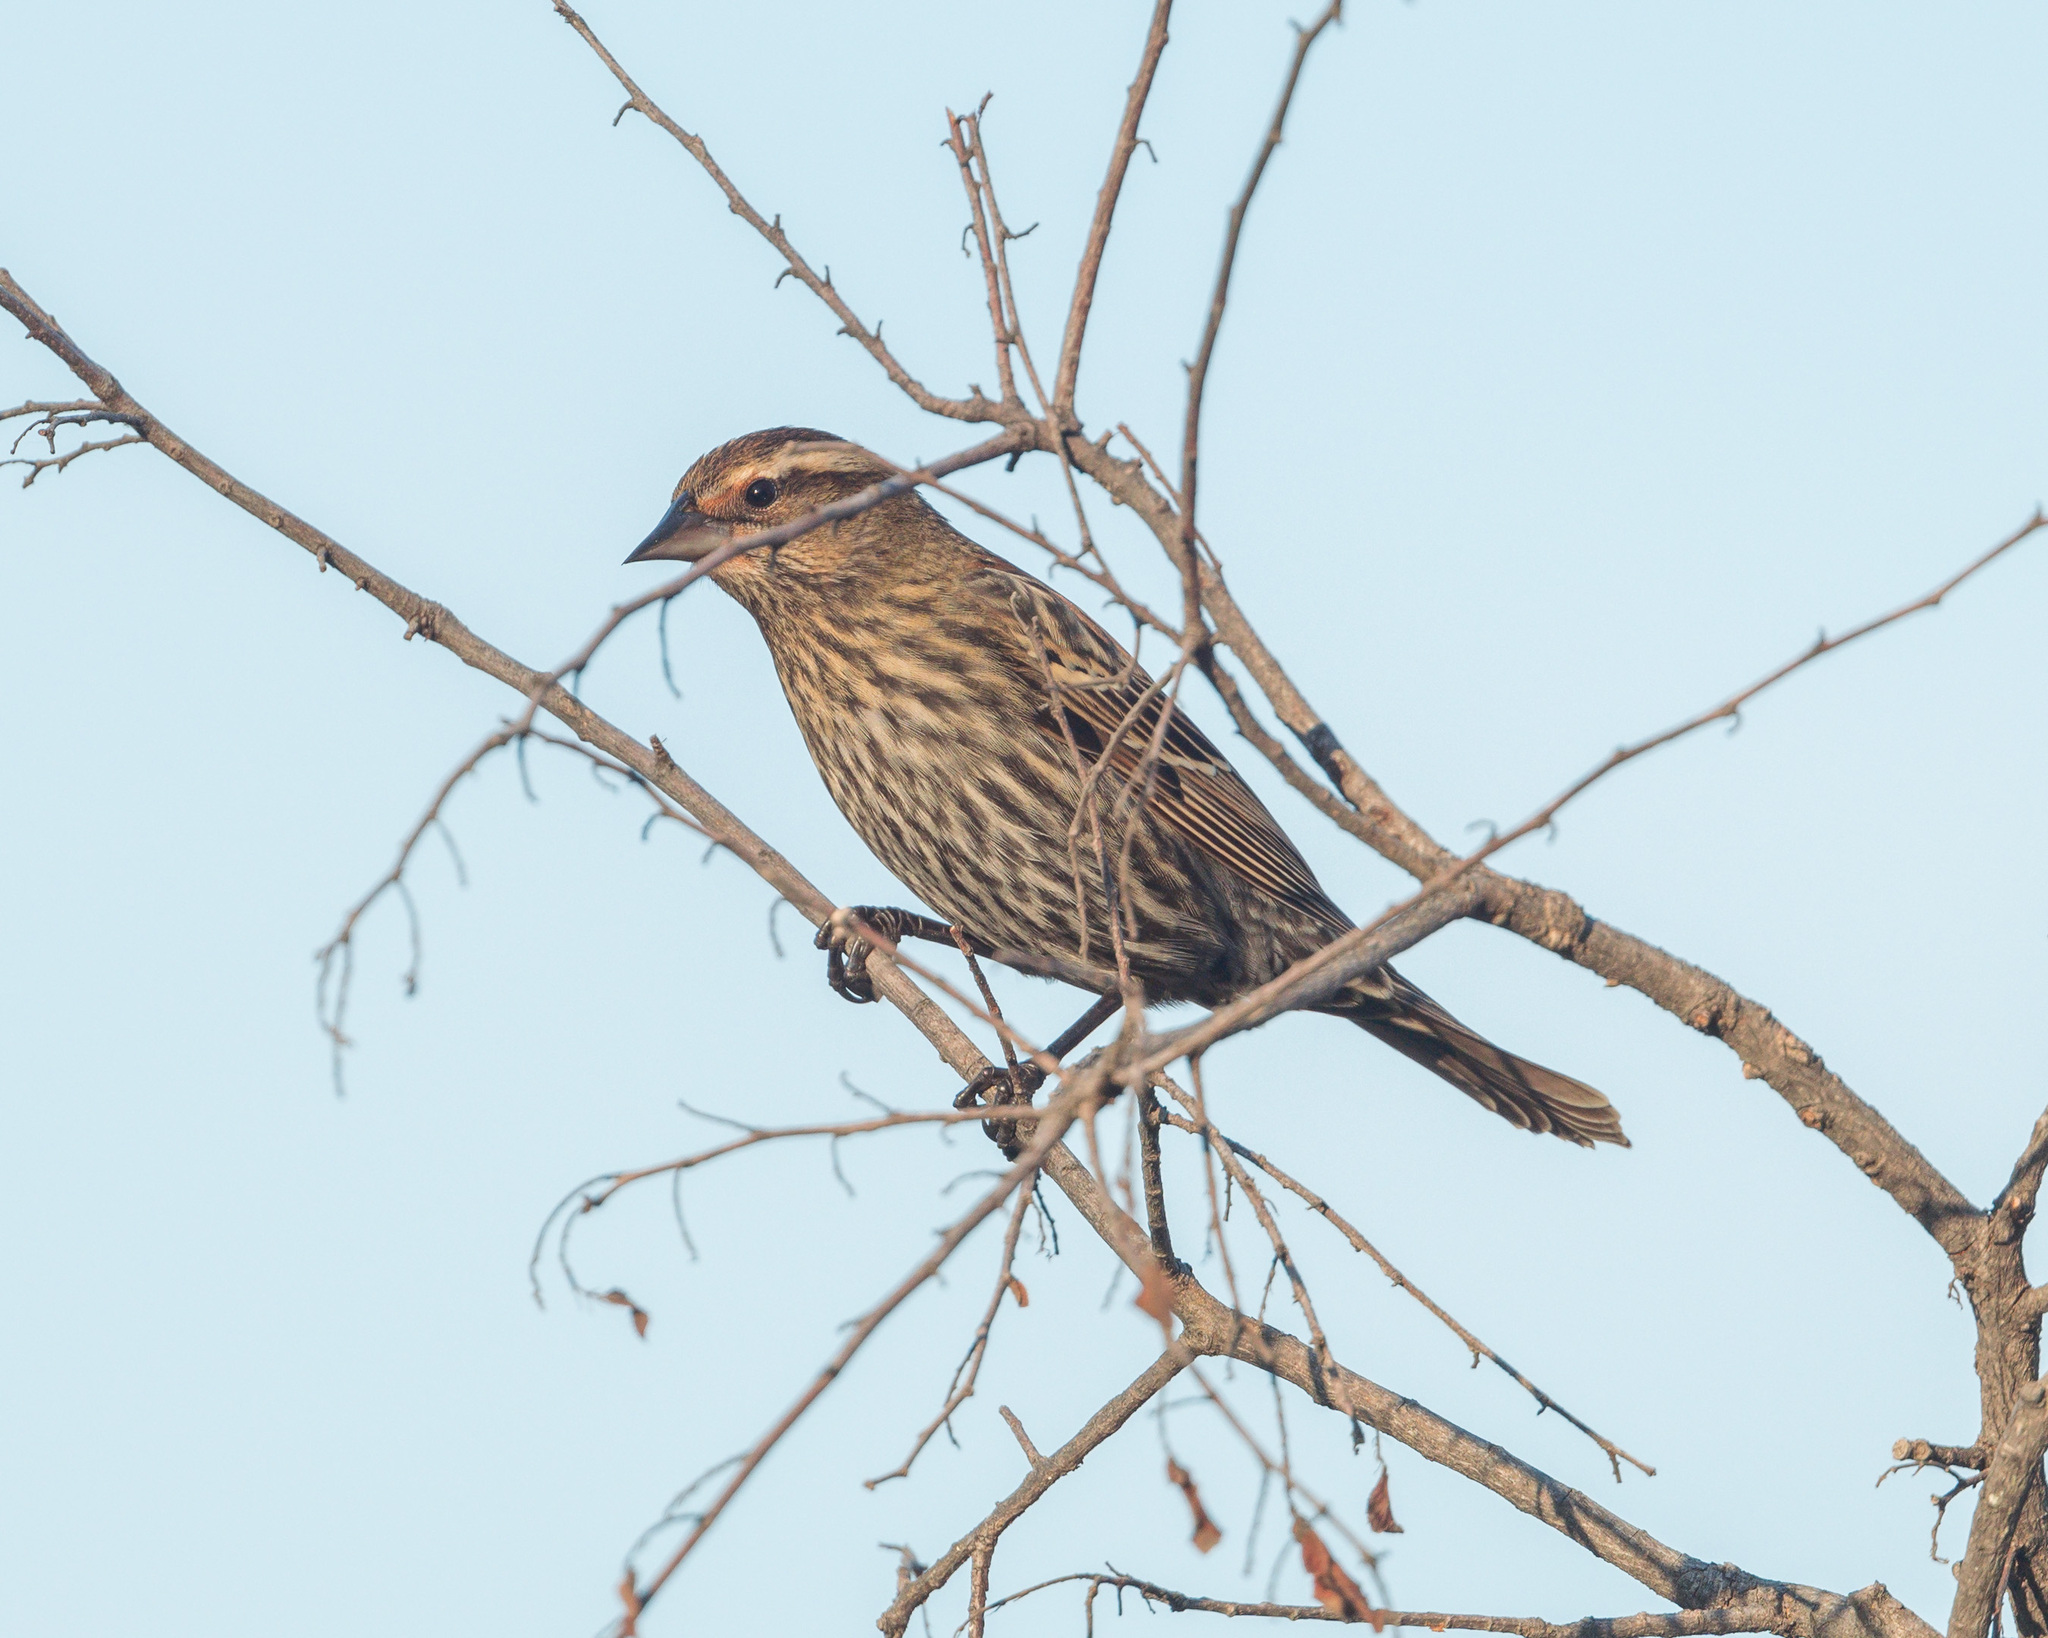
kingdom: Animalia
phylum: Chordata
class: Aves
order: Passeriformes
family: Icteridae
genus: Agelaius
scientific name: Agelaius phoeniceus
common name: Red-winged blackbird
